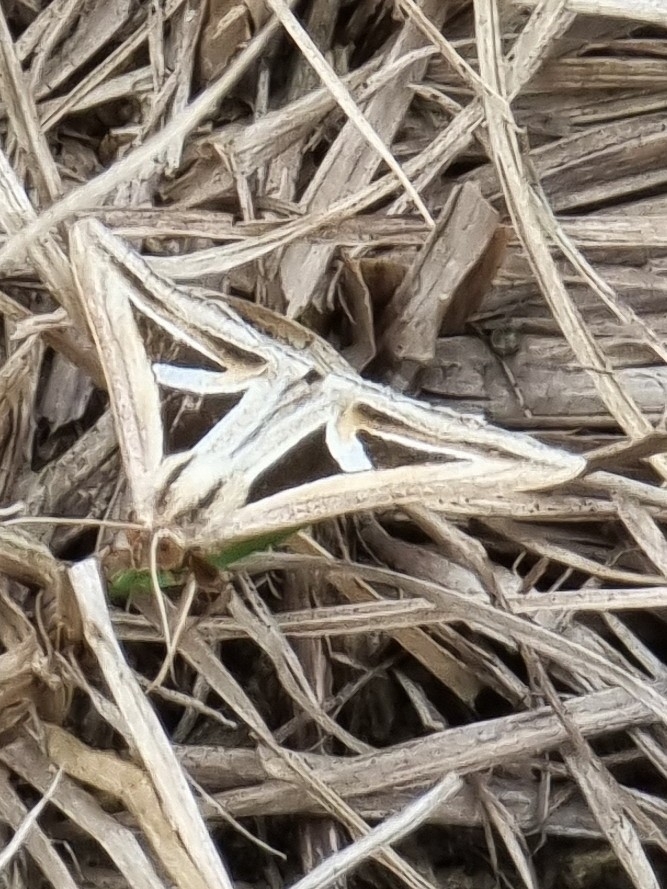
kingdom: Animalia
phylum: Arthropoda
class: Insecta
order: Lepidoptera
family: Erebidae
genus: Trigonodes
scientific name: Trigonodes hyppasia
